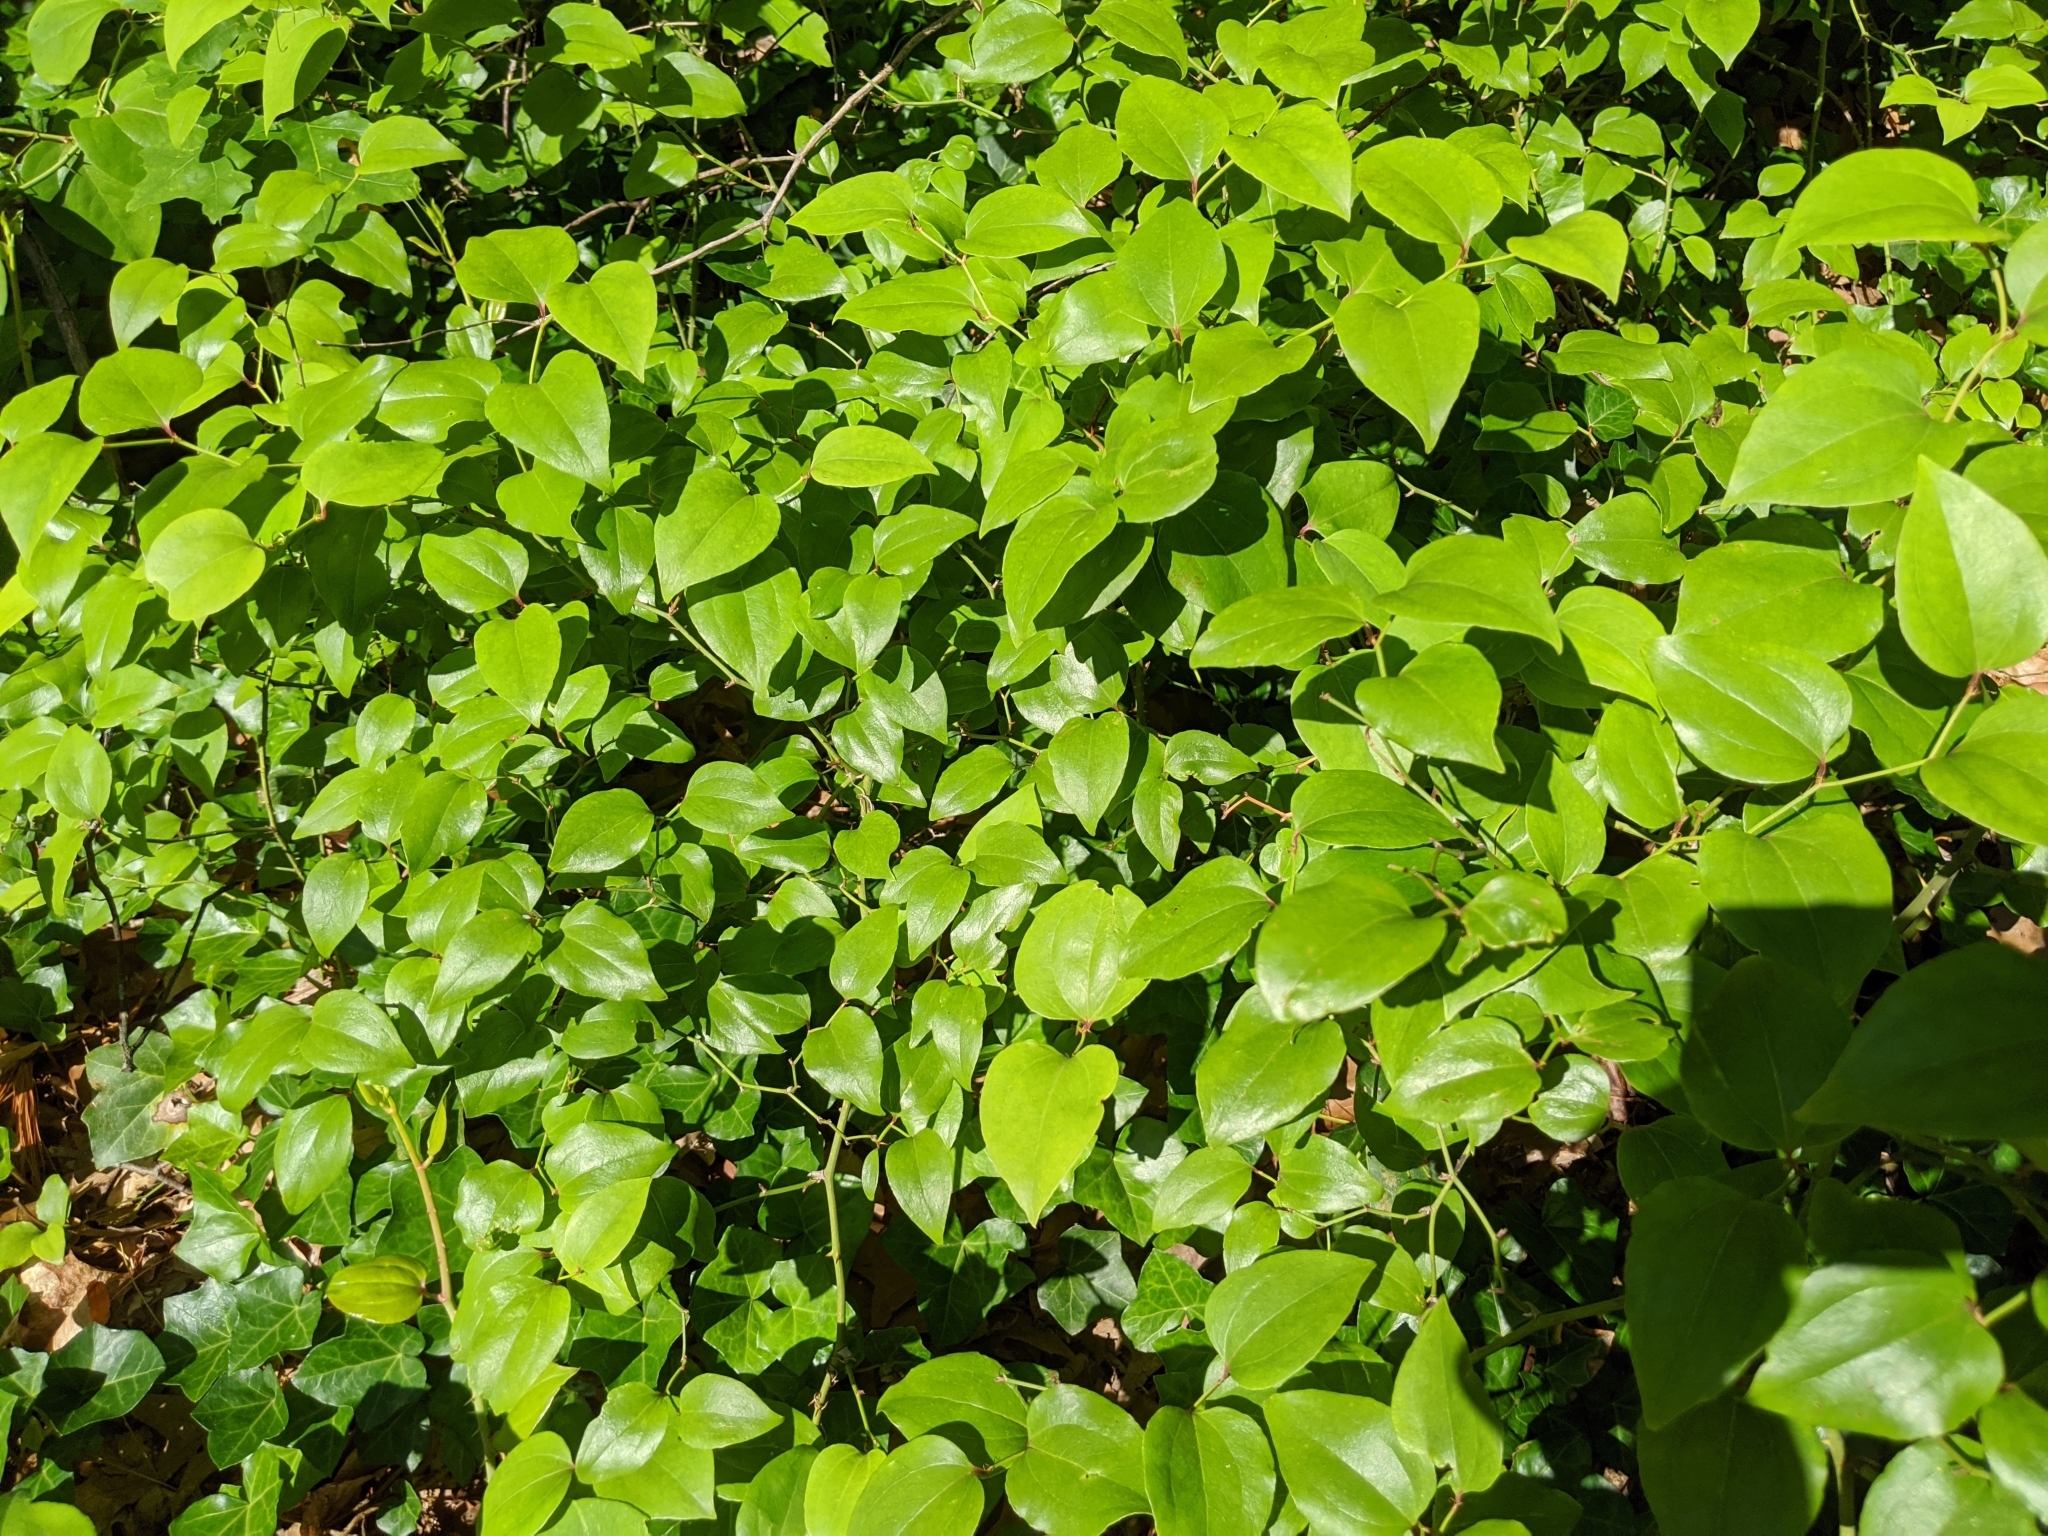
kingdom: Plantae
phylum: Tracheophyta
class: Liliopsida
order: Liliales
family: Smilacaceae
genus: Smilax
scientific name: Smilax rotundifolia
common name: Bullbriar
